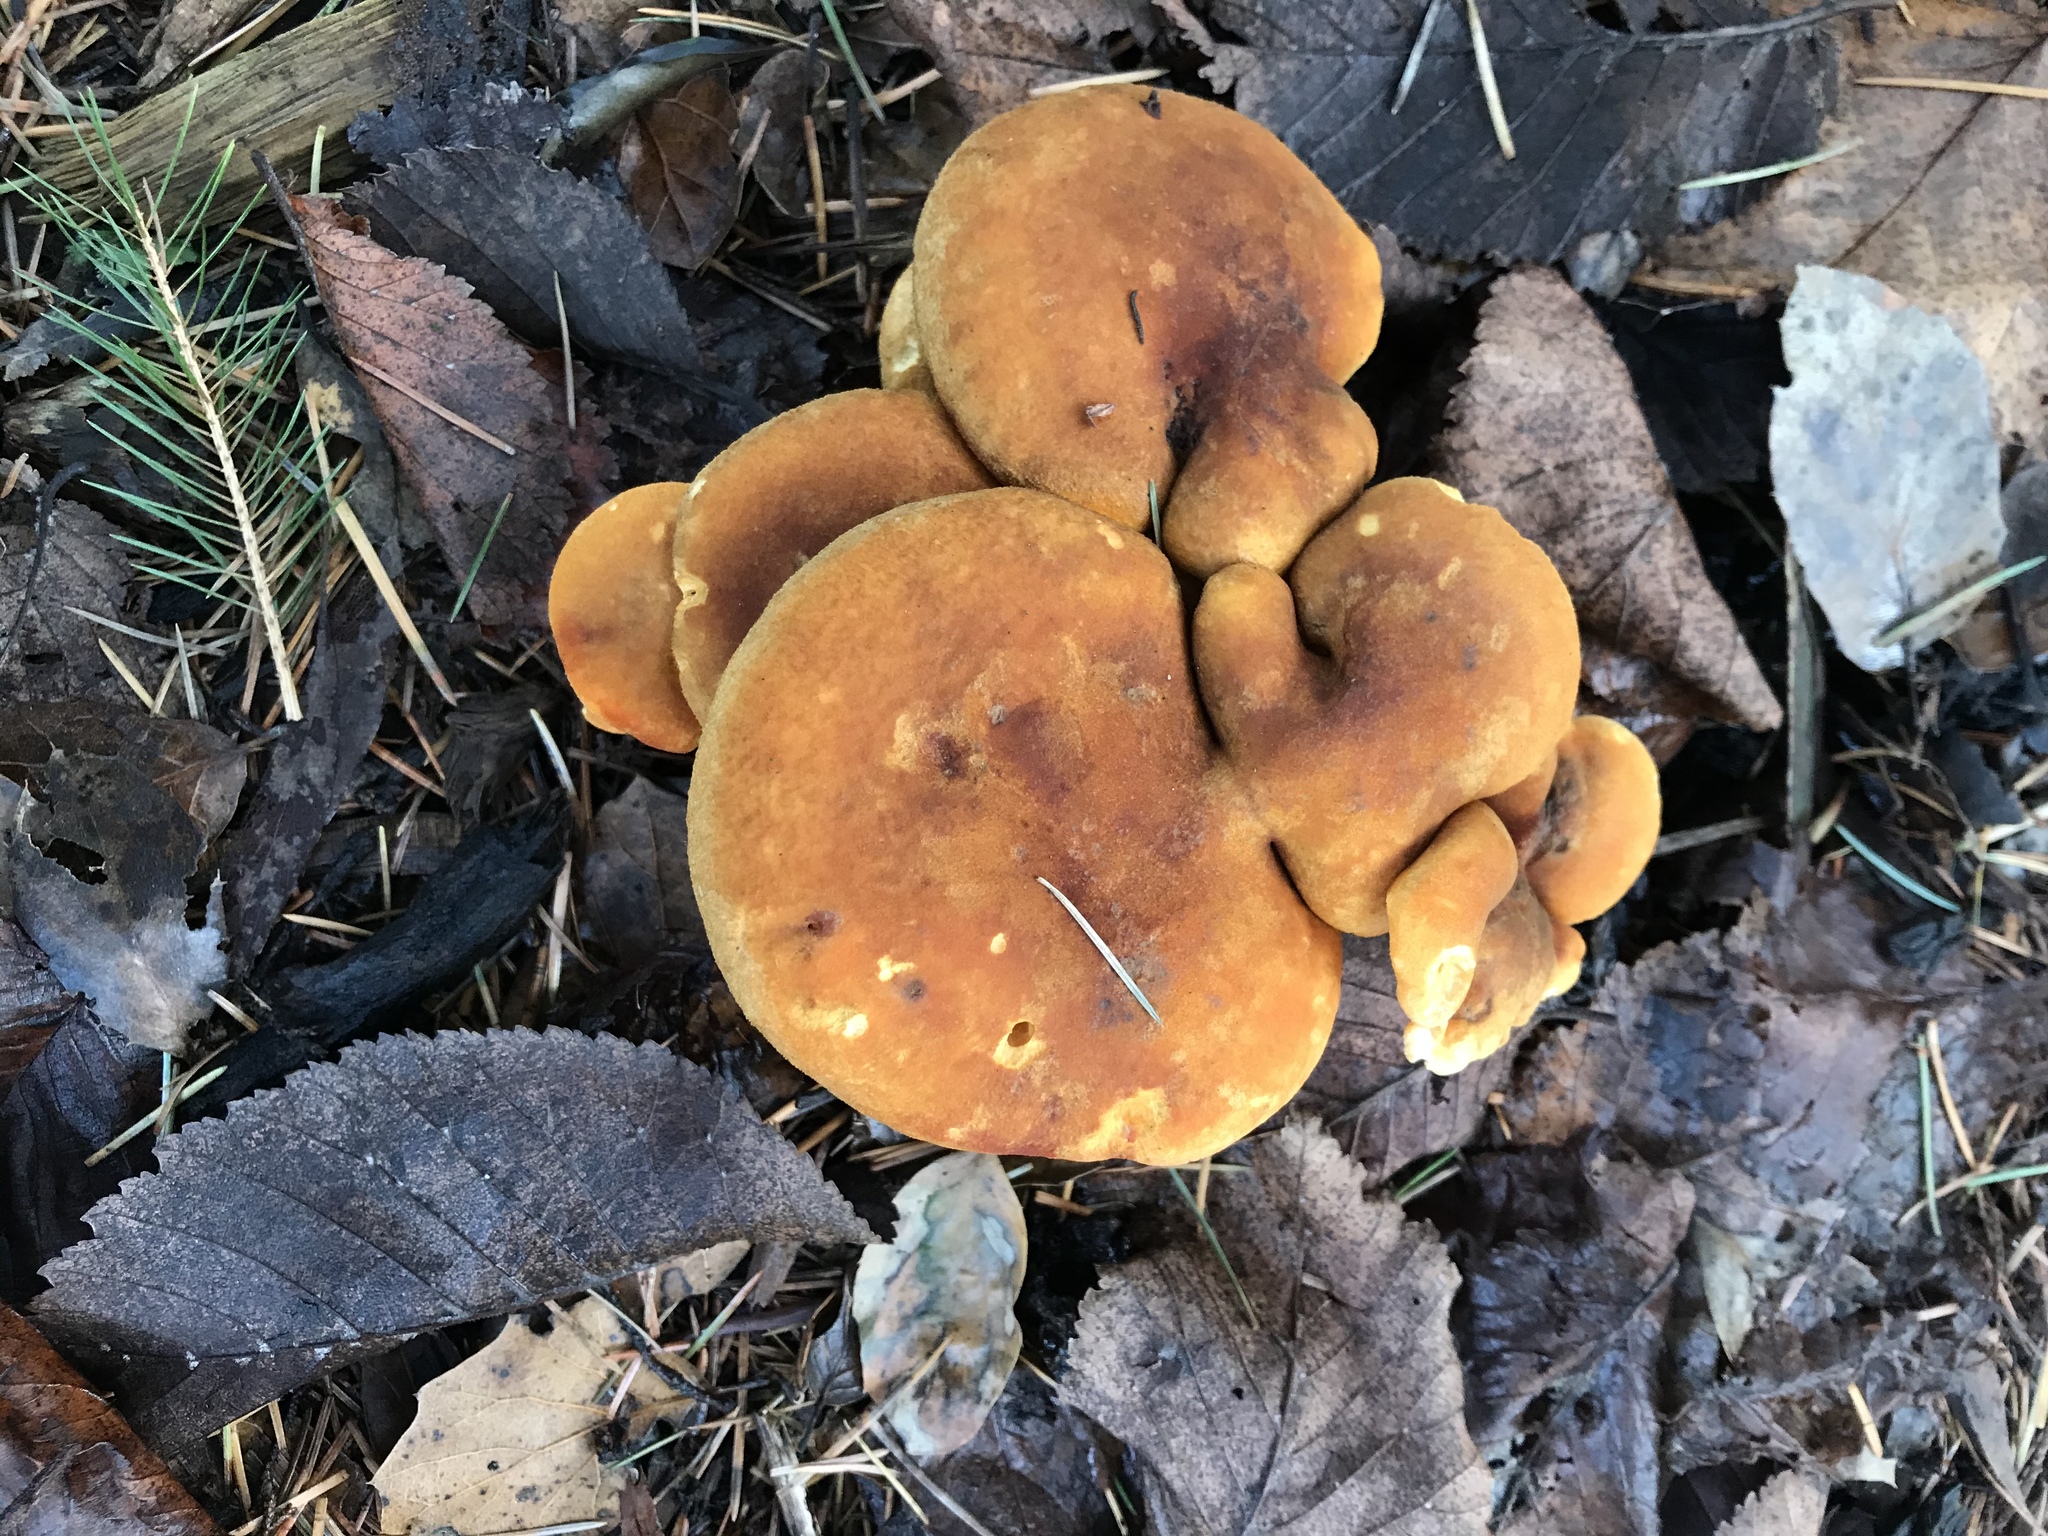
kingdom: Fungi
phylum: Basidiomycota
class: Agaricomycetes
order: Boletales
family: Hygrophoropsidaceae
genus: Hygrophoropsis
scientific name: Hygrophoropsis aurantiaca
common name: False chanterelle
